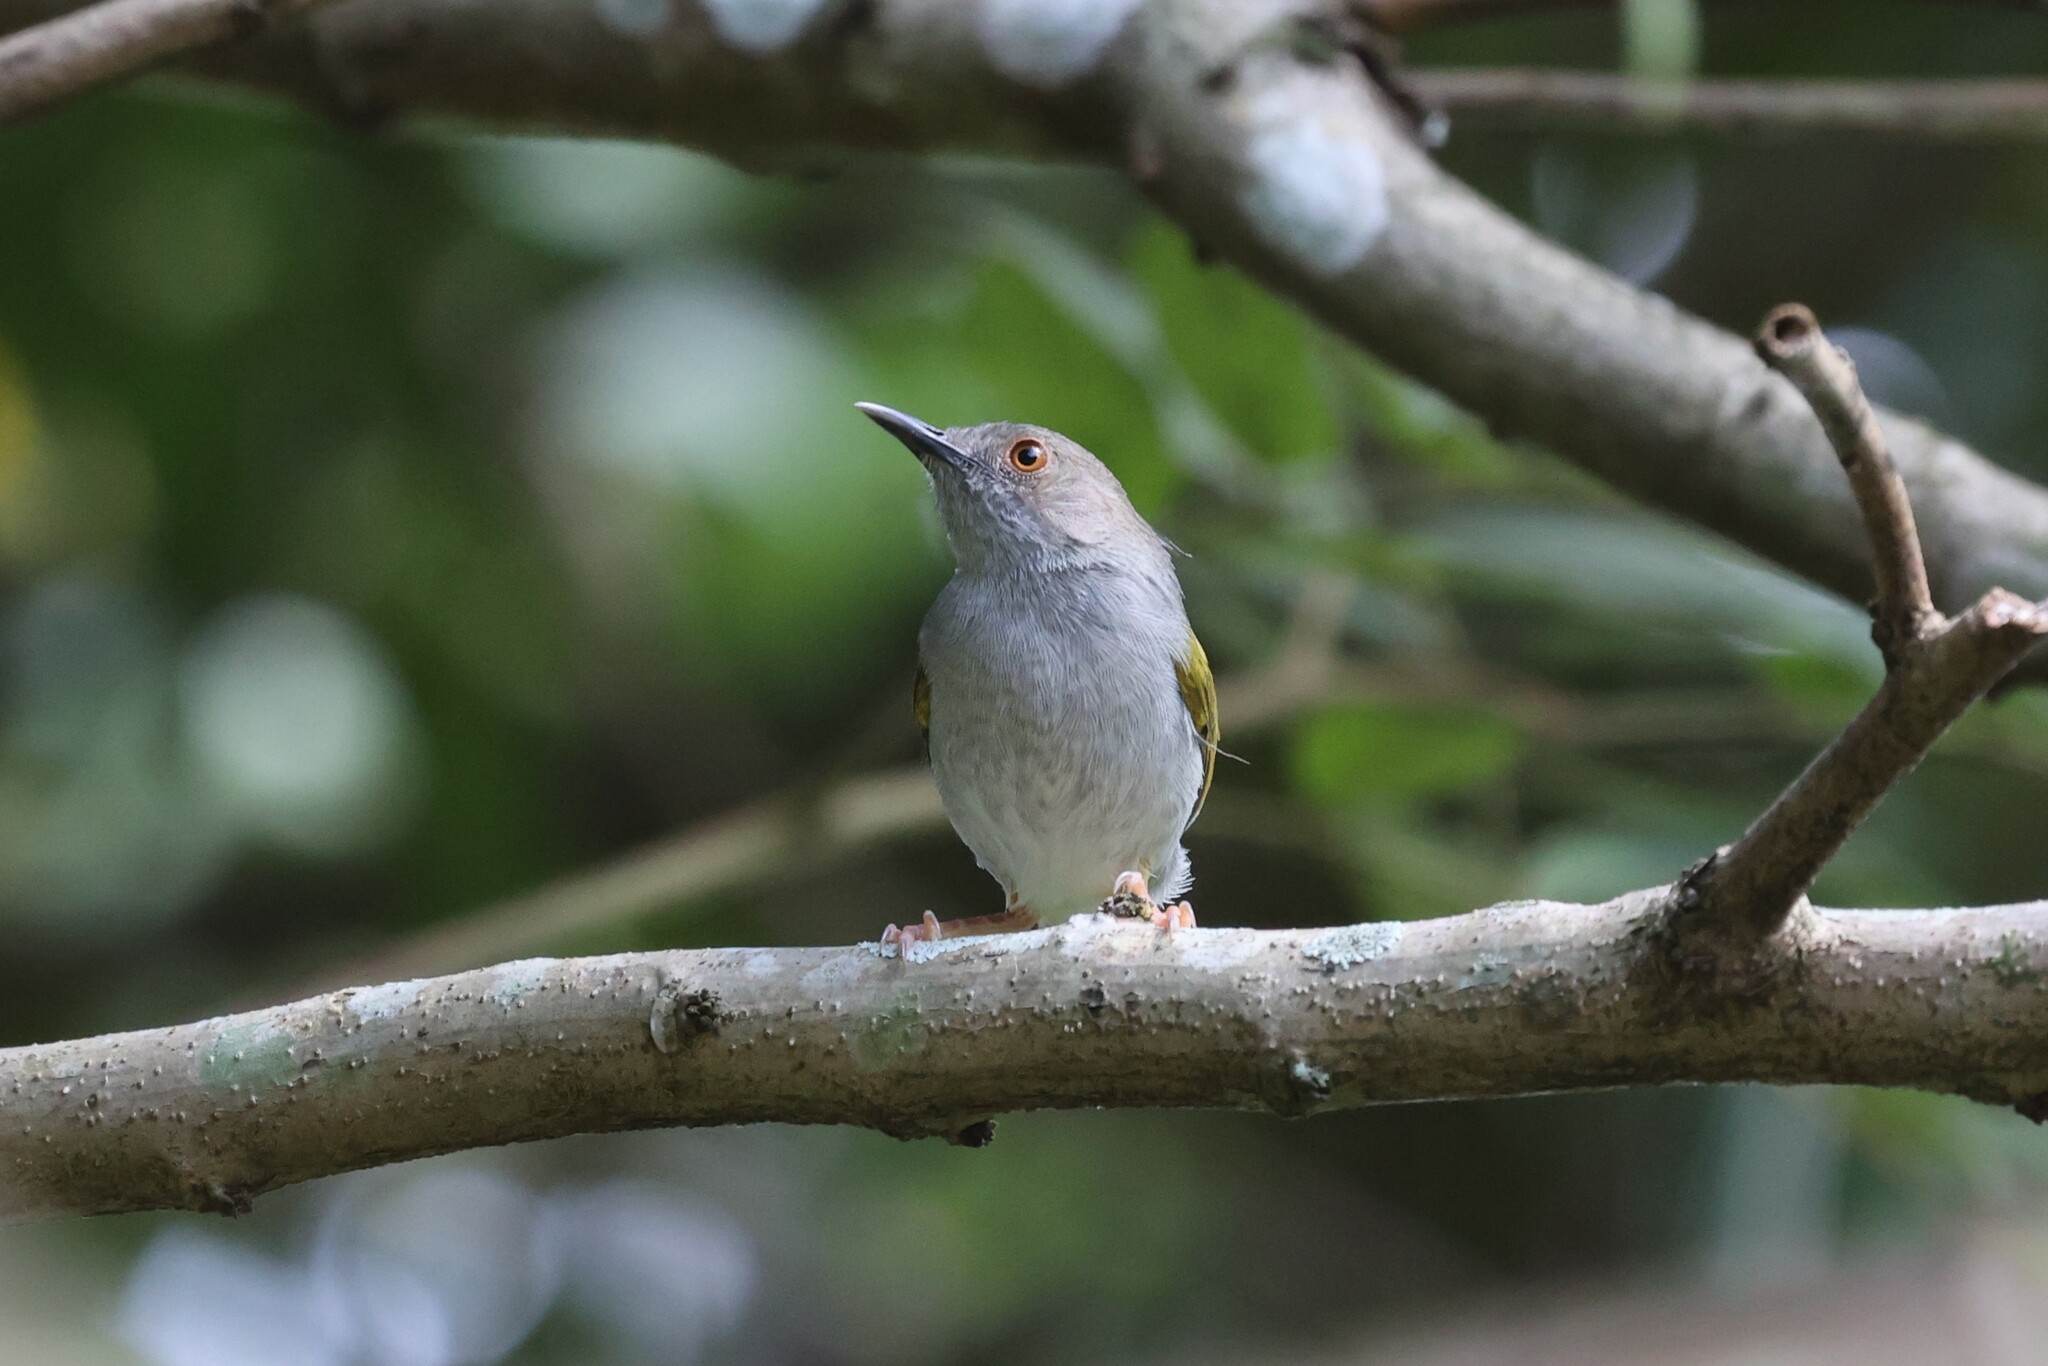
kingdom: Animalia
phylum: Chordata
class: Aves
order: Passeriformes
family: Cisticolidae
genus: Camaroptera
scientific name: Camaroptera brachyura
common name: Green-backed camaroptera
